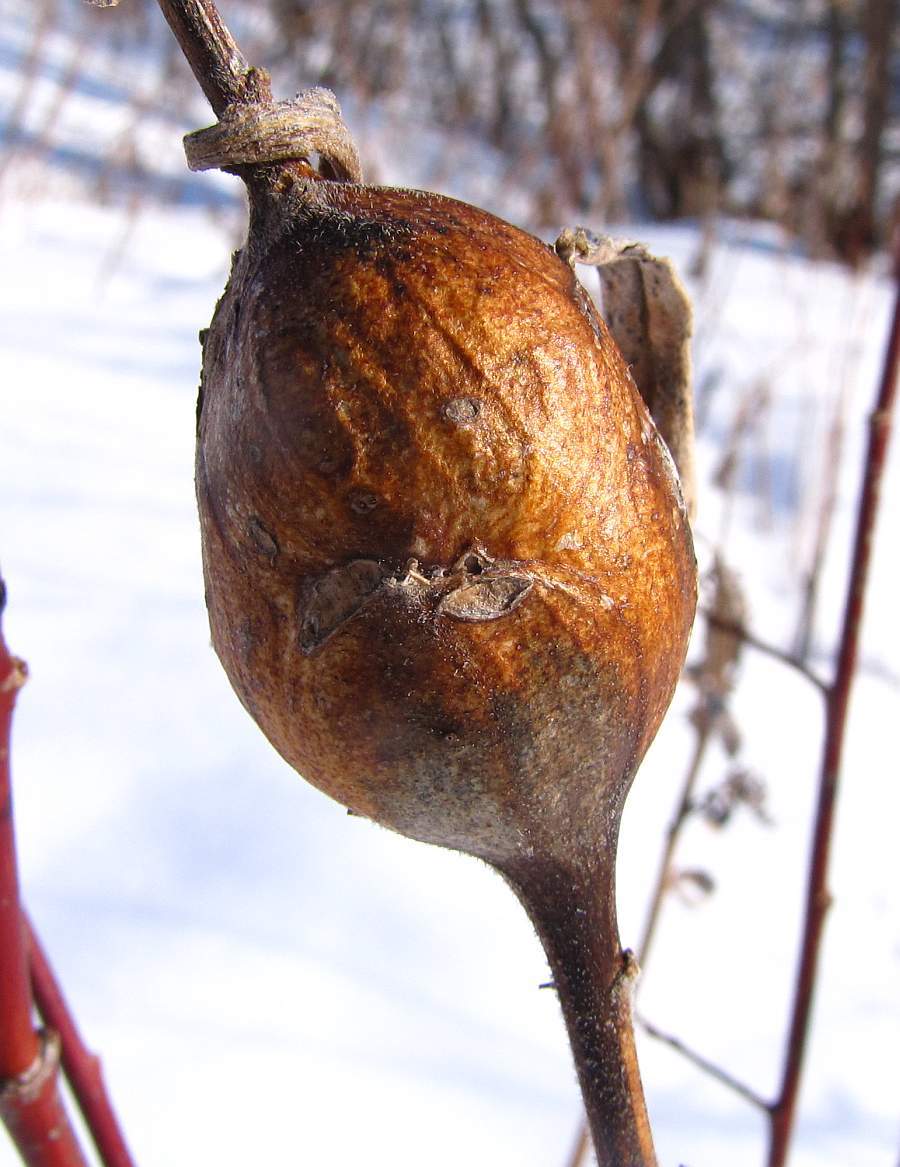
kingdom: Animalia
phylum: Arthropoda
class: Insecta
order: Diptera
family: Tephritidae
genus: Eurosta
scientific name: Eurosta solidaginis
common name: Goldenrod gall fly
